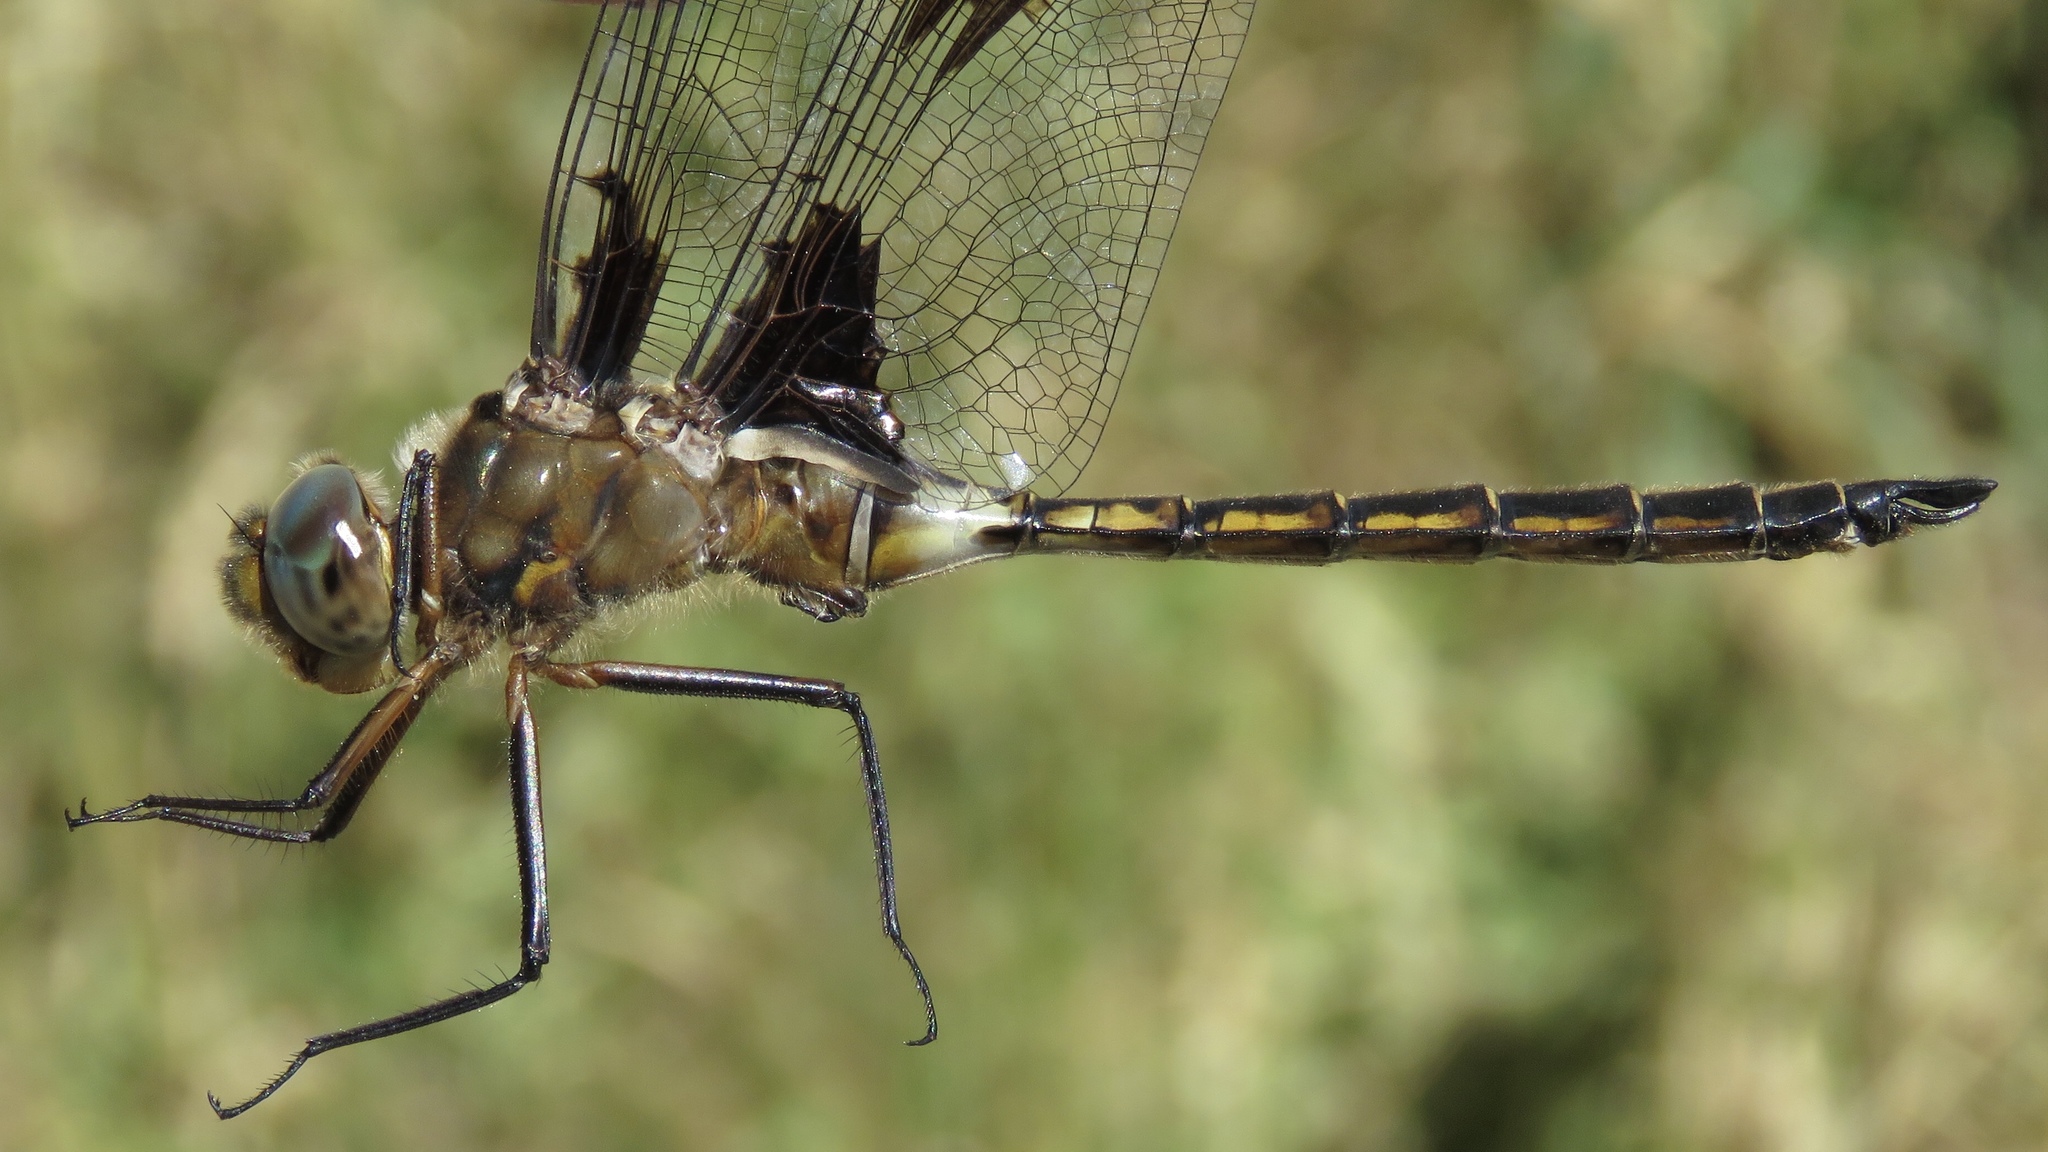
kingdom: Animalia
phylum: Arthropoda
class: Insecta
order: Odonata
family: Corduliidae
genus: Epitheca
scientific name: Epitheca princeps
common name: Prince baskettail
